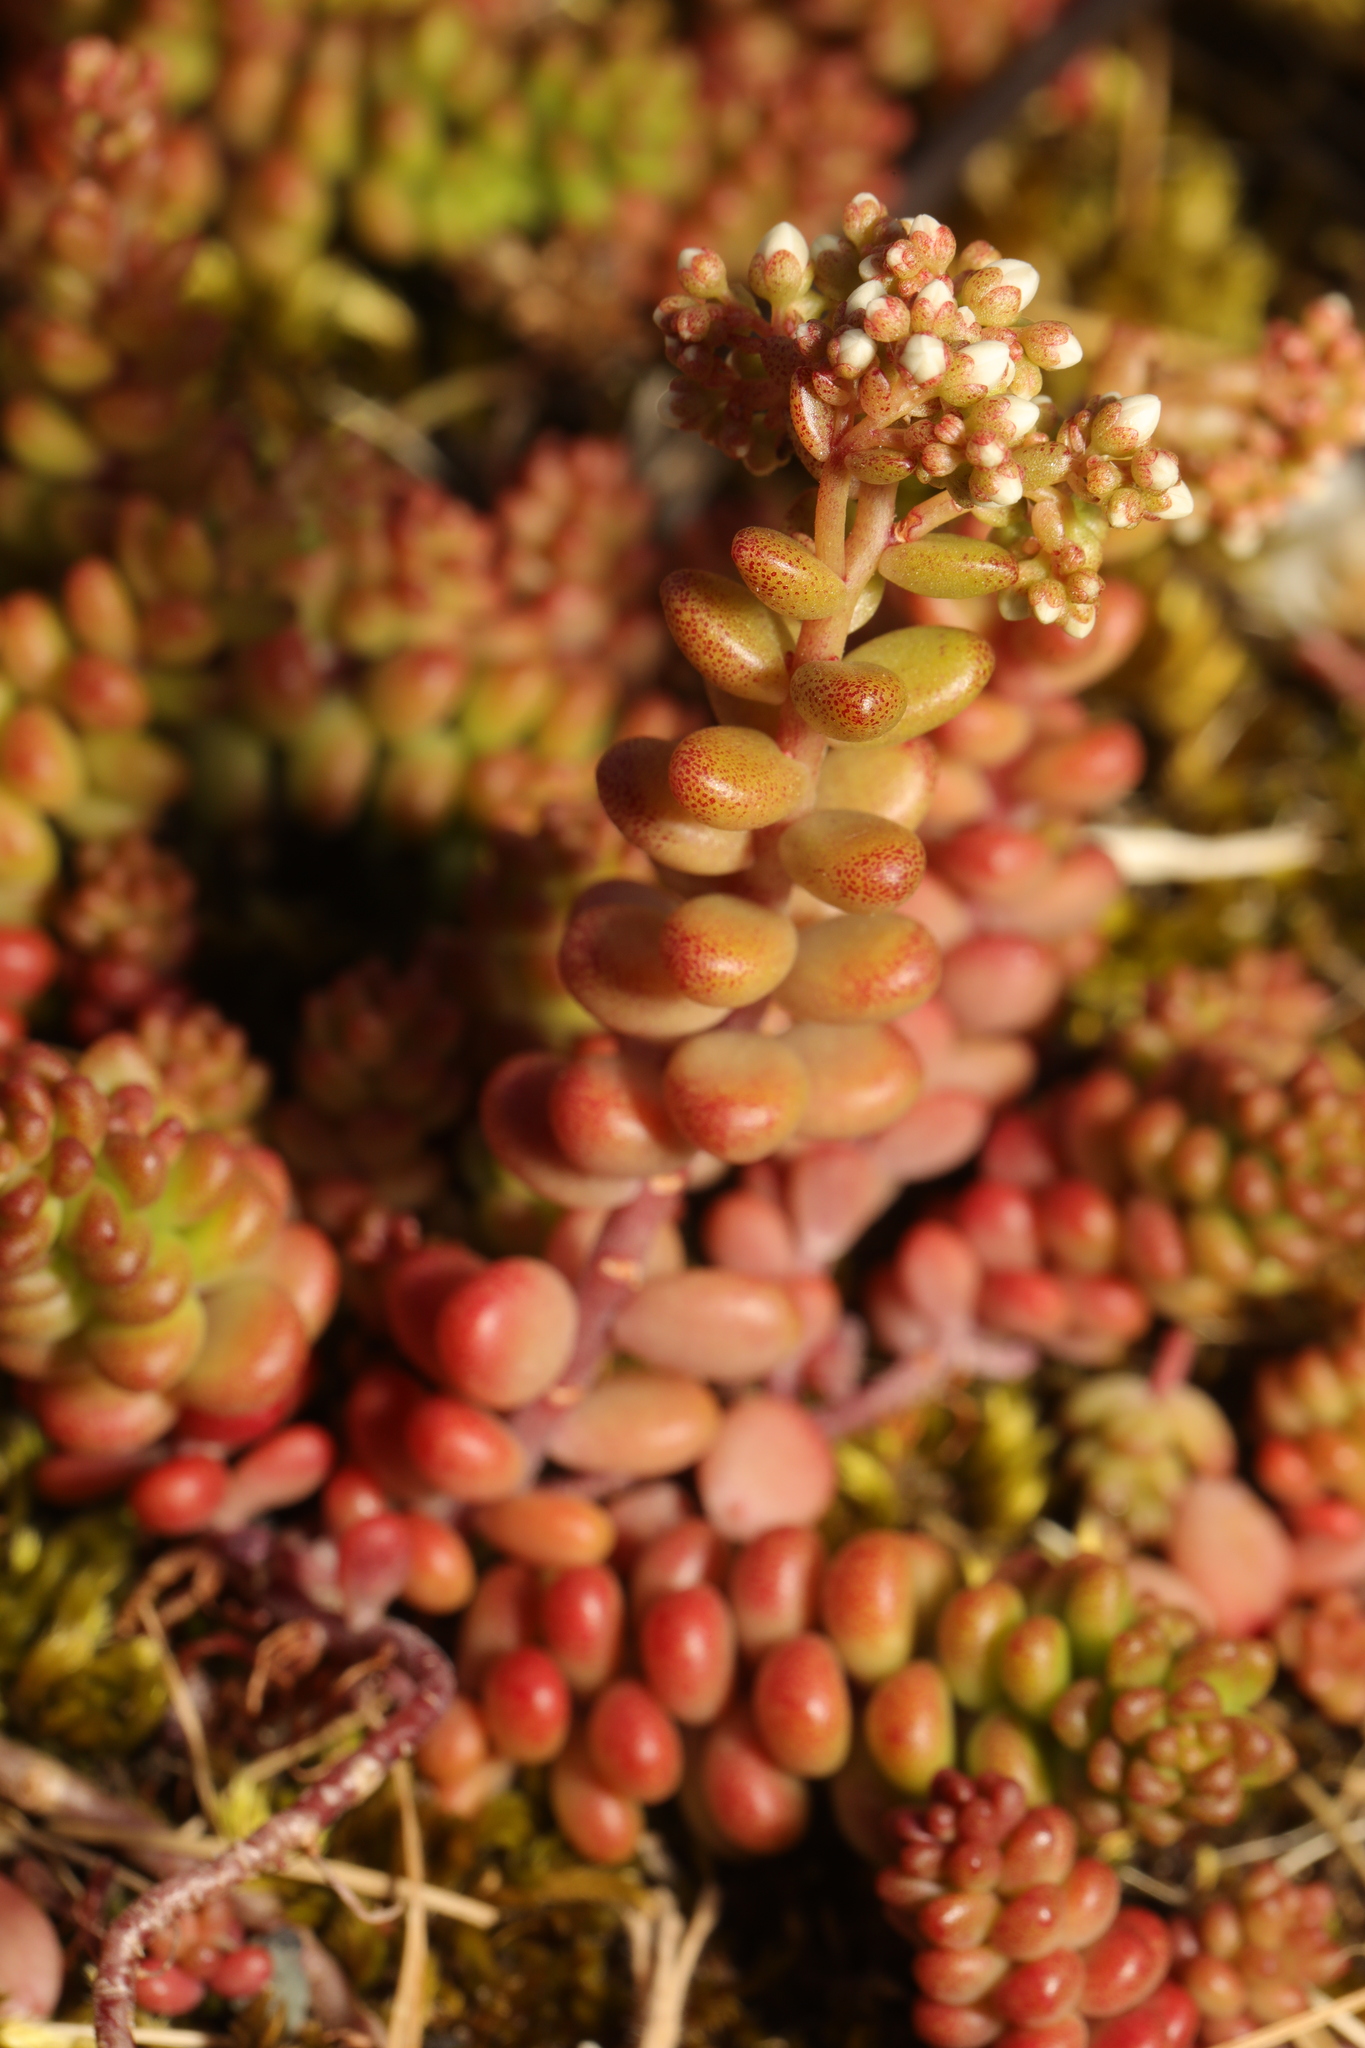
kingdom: Plantae
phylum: Tracheophyta
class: Magnoliopsida
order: Saxifragales
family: Crassulaceae
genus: Sedum
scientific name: Sedum album
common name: White stonecrop
